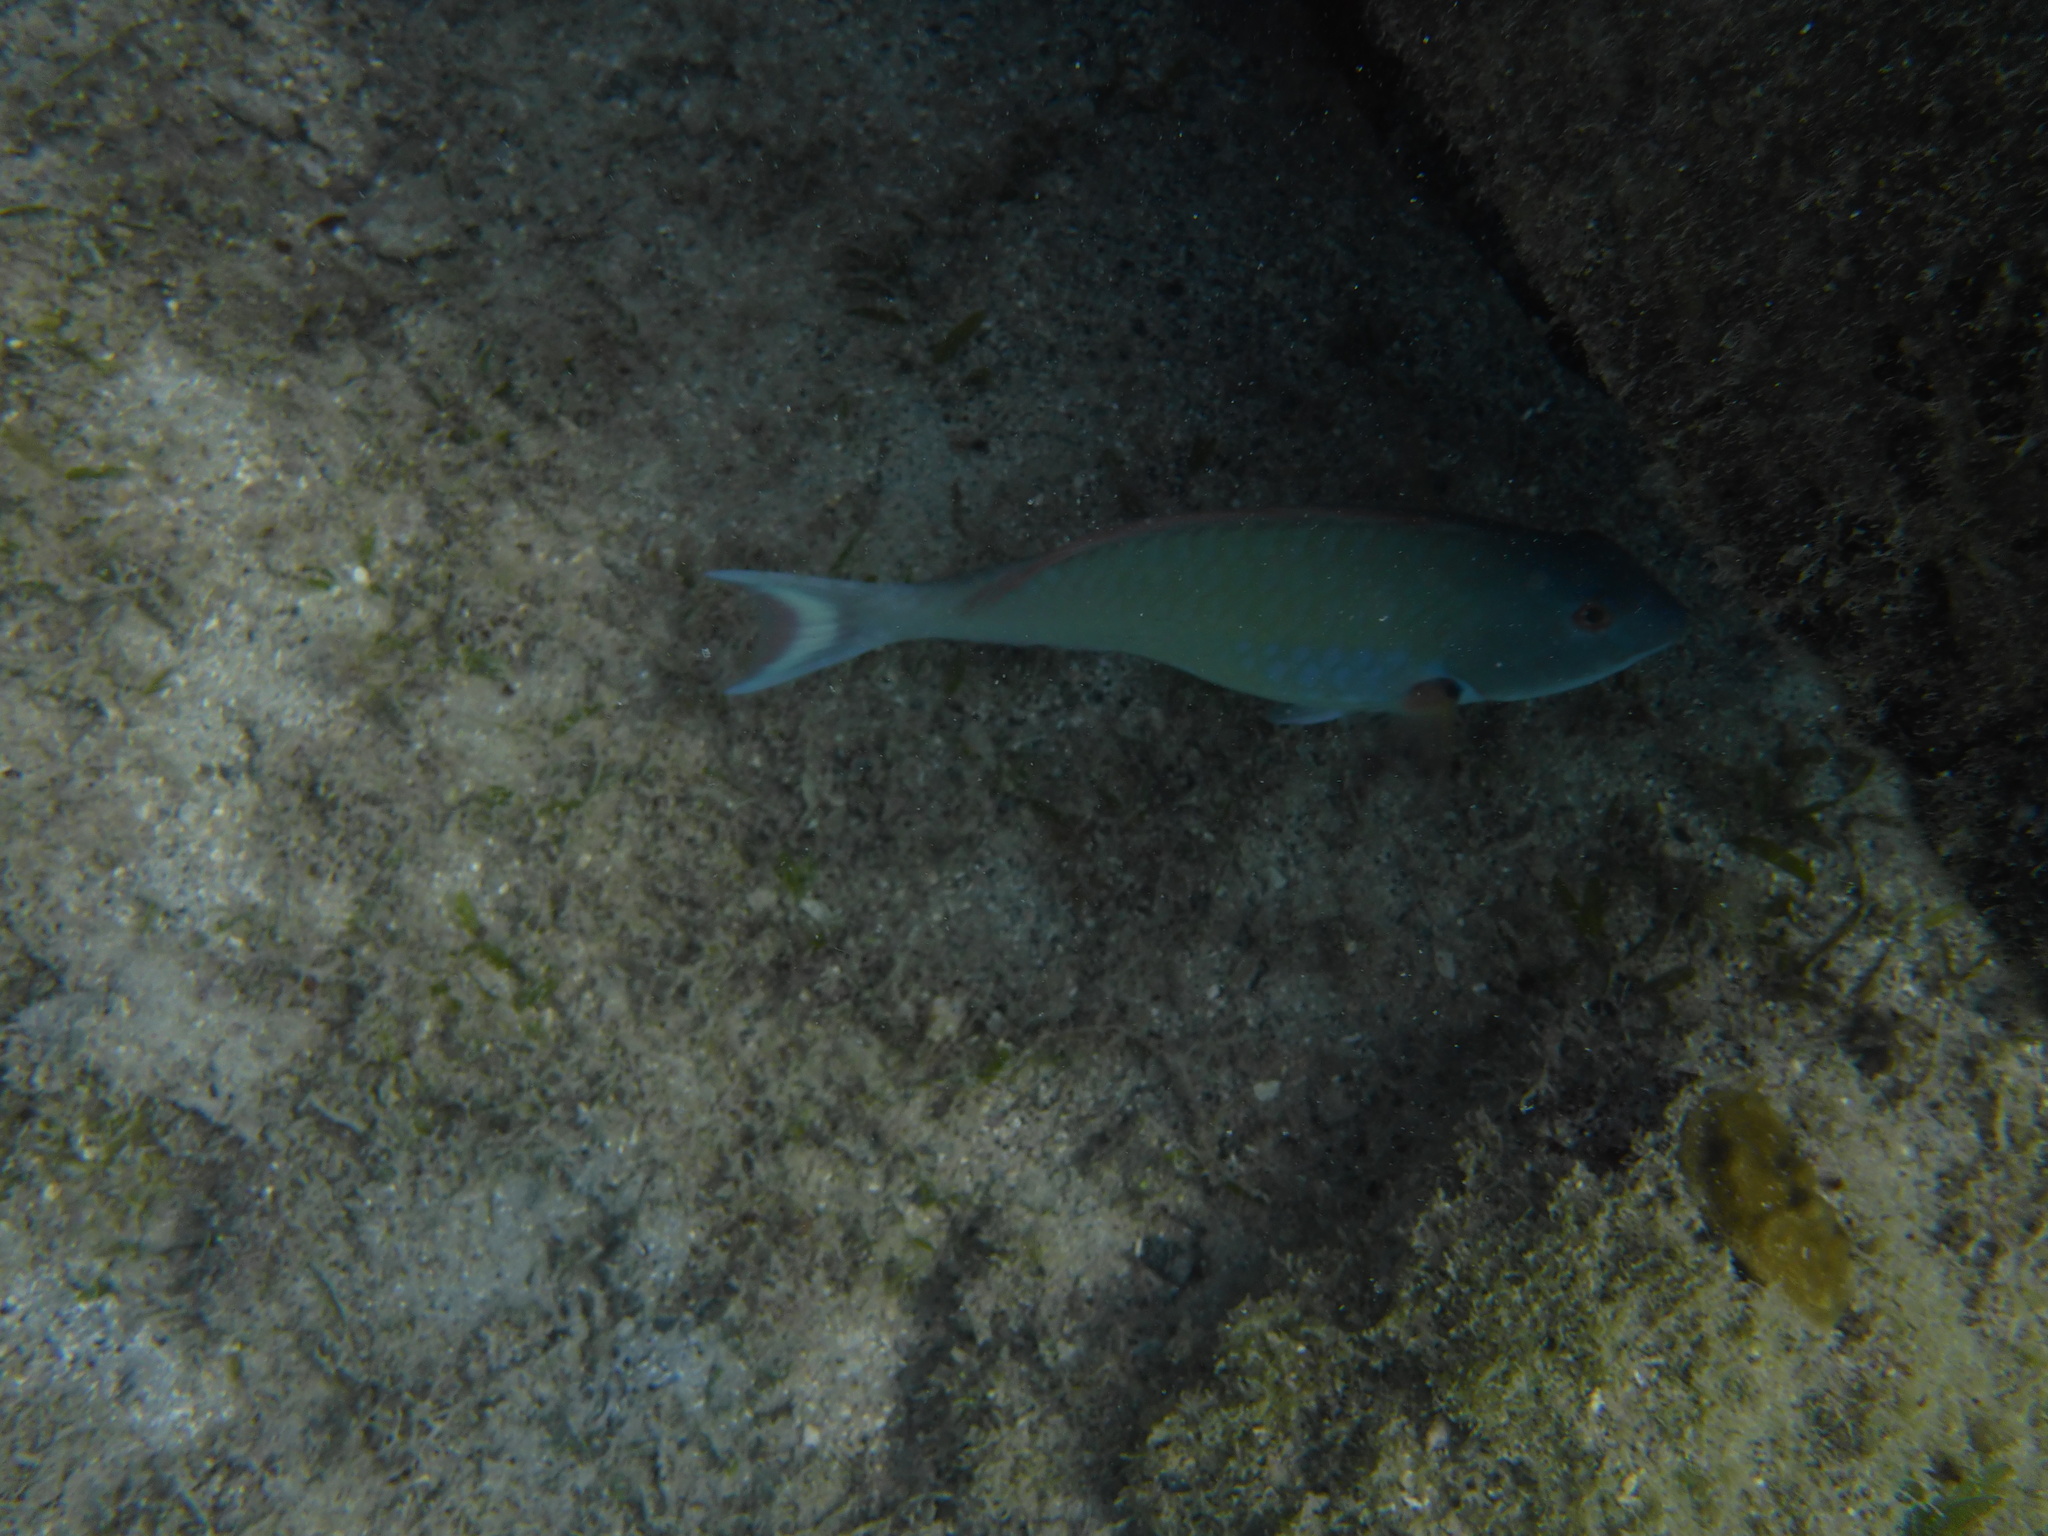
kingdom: Animalia
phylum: Chordata
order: Perciformes
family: Scaridae
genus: Sparisoma
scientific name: Sparisoma chrysopterum
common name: Redtail parrotfish
